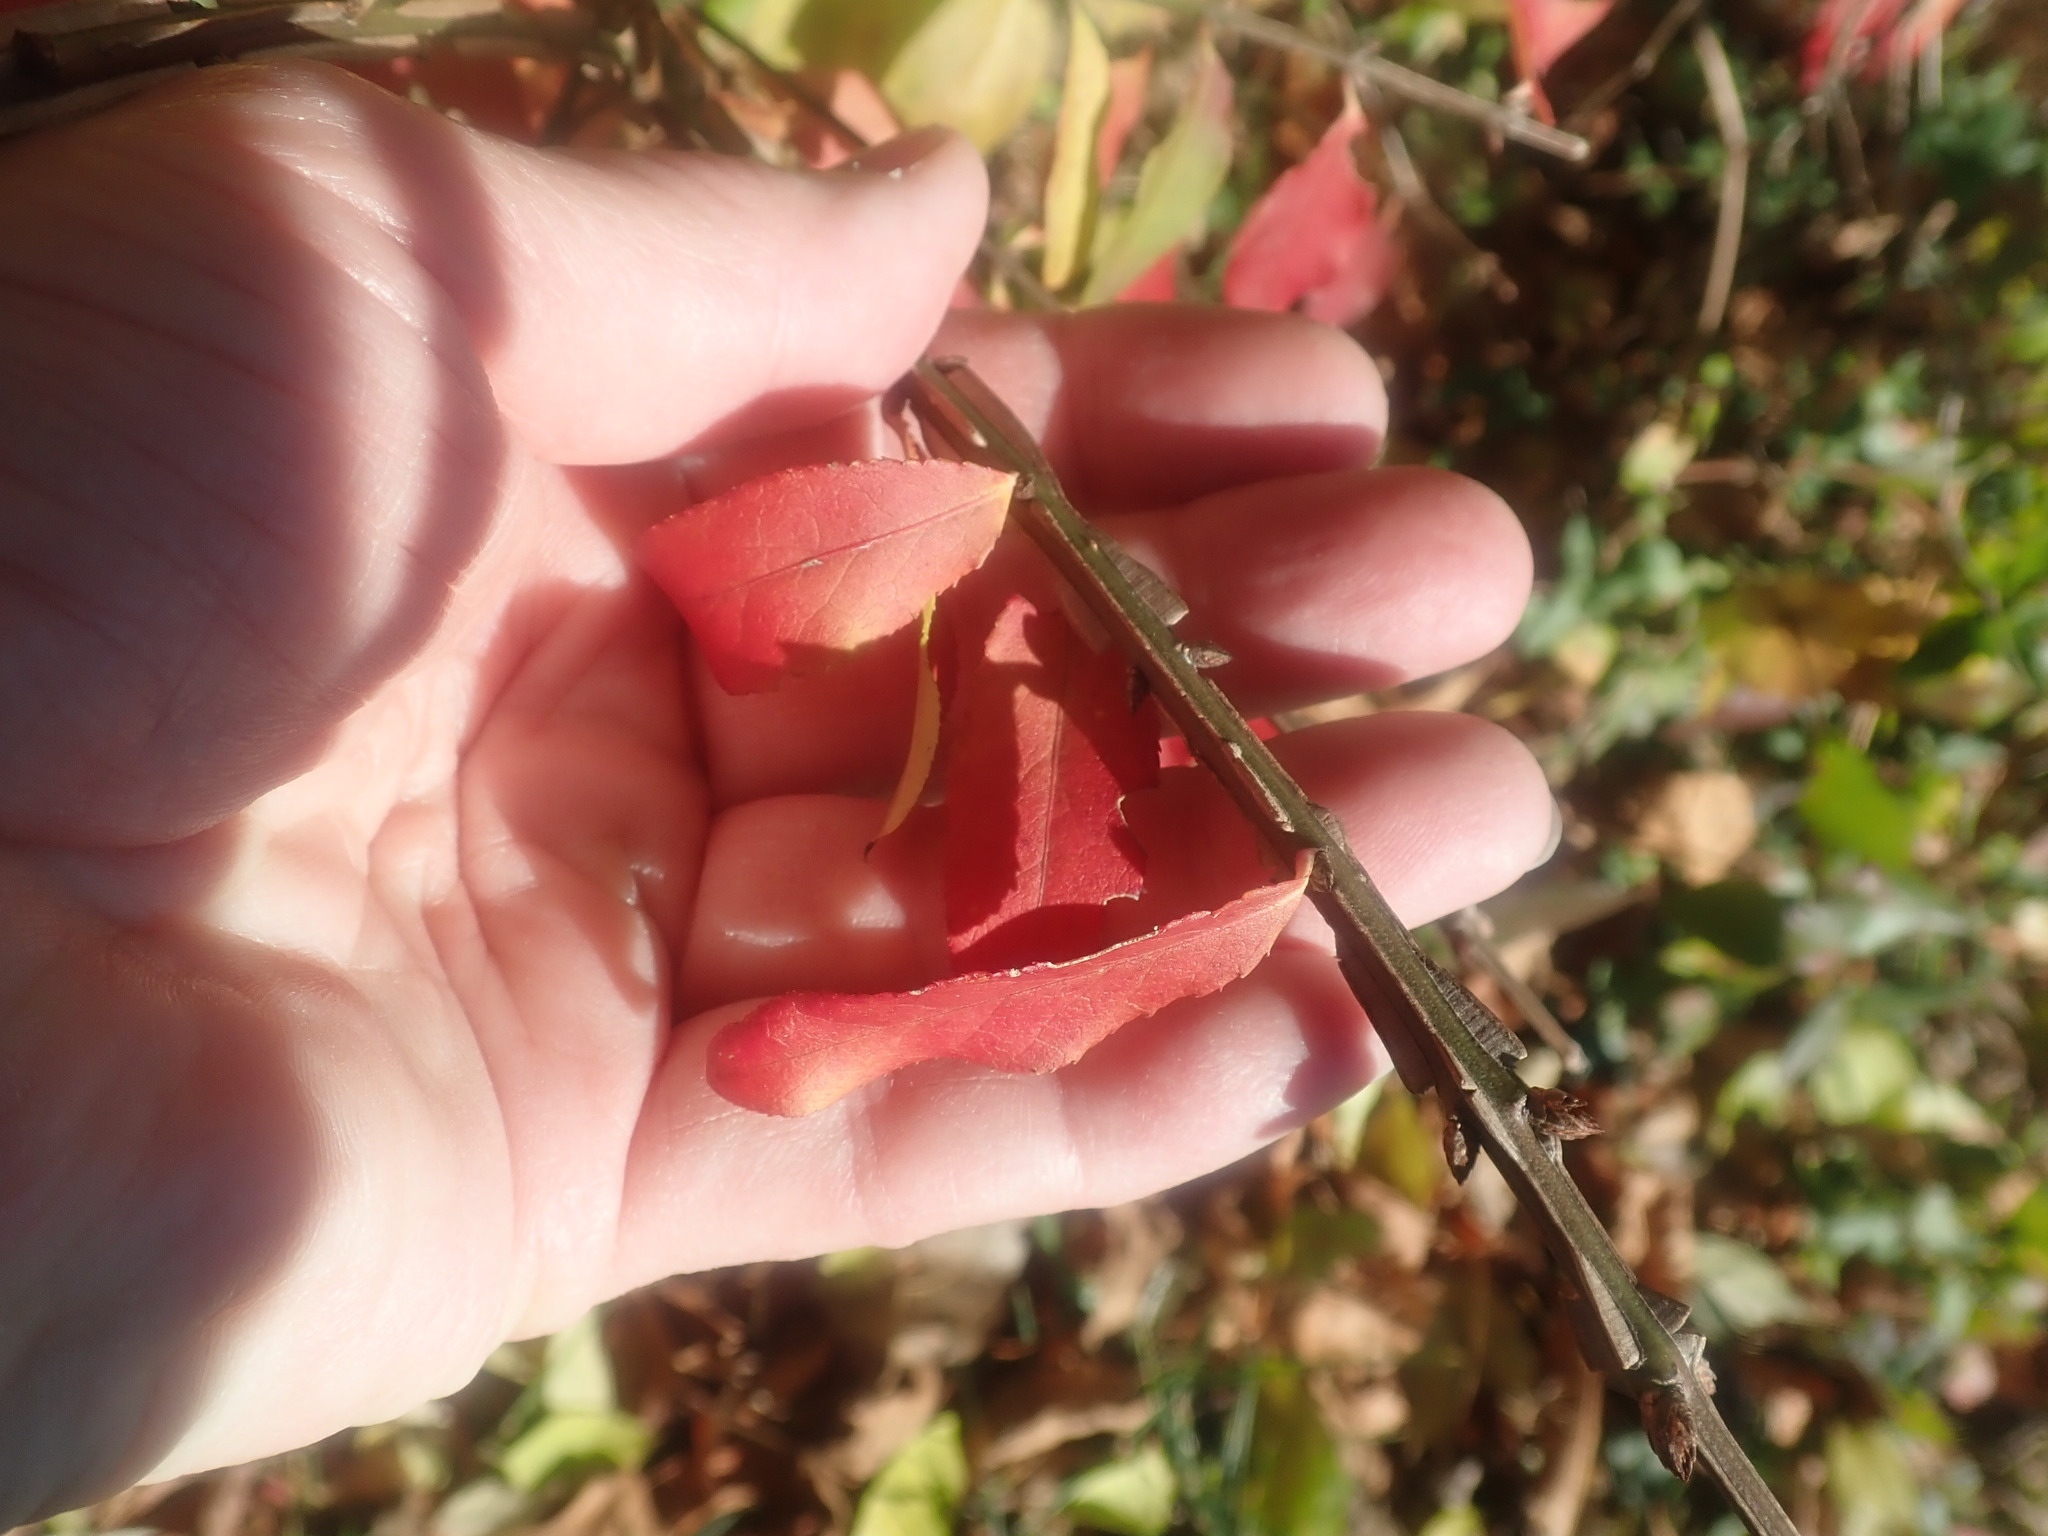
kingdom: Plantae
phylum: Tracheophyta
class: Magnoliopsida
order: Celastrales
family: Celastraceae
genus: Euonymus
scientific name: Euonymus alatus
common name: Winged euonymus
